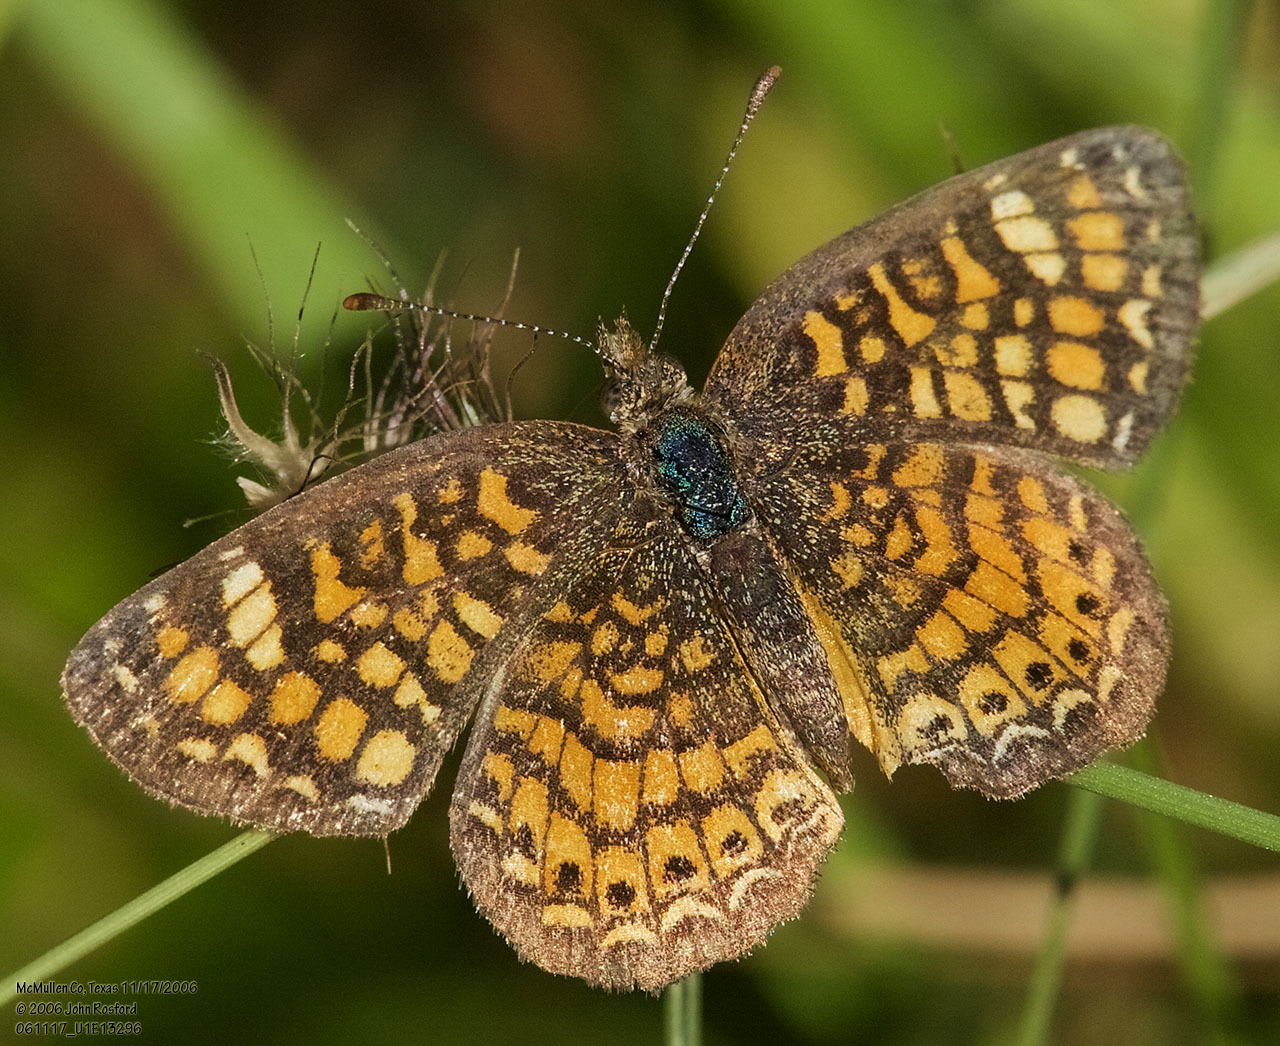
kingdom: Animalia
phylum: Arthropoda
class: Insecta
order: Lepidoptera
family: Nymphalidae
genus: Phyciodes
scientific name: Phyciodes vesta
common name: Vesta crescent
